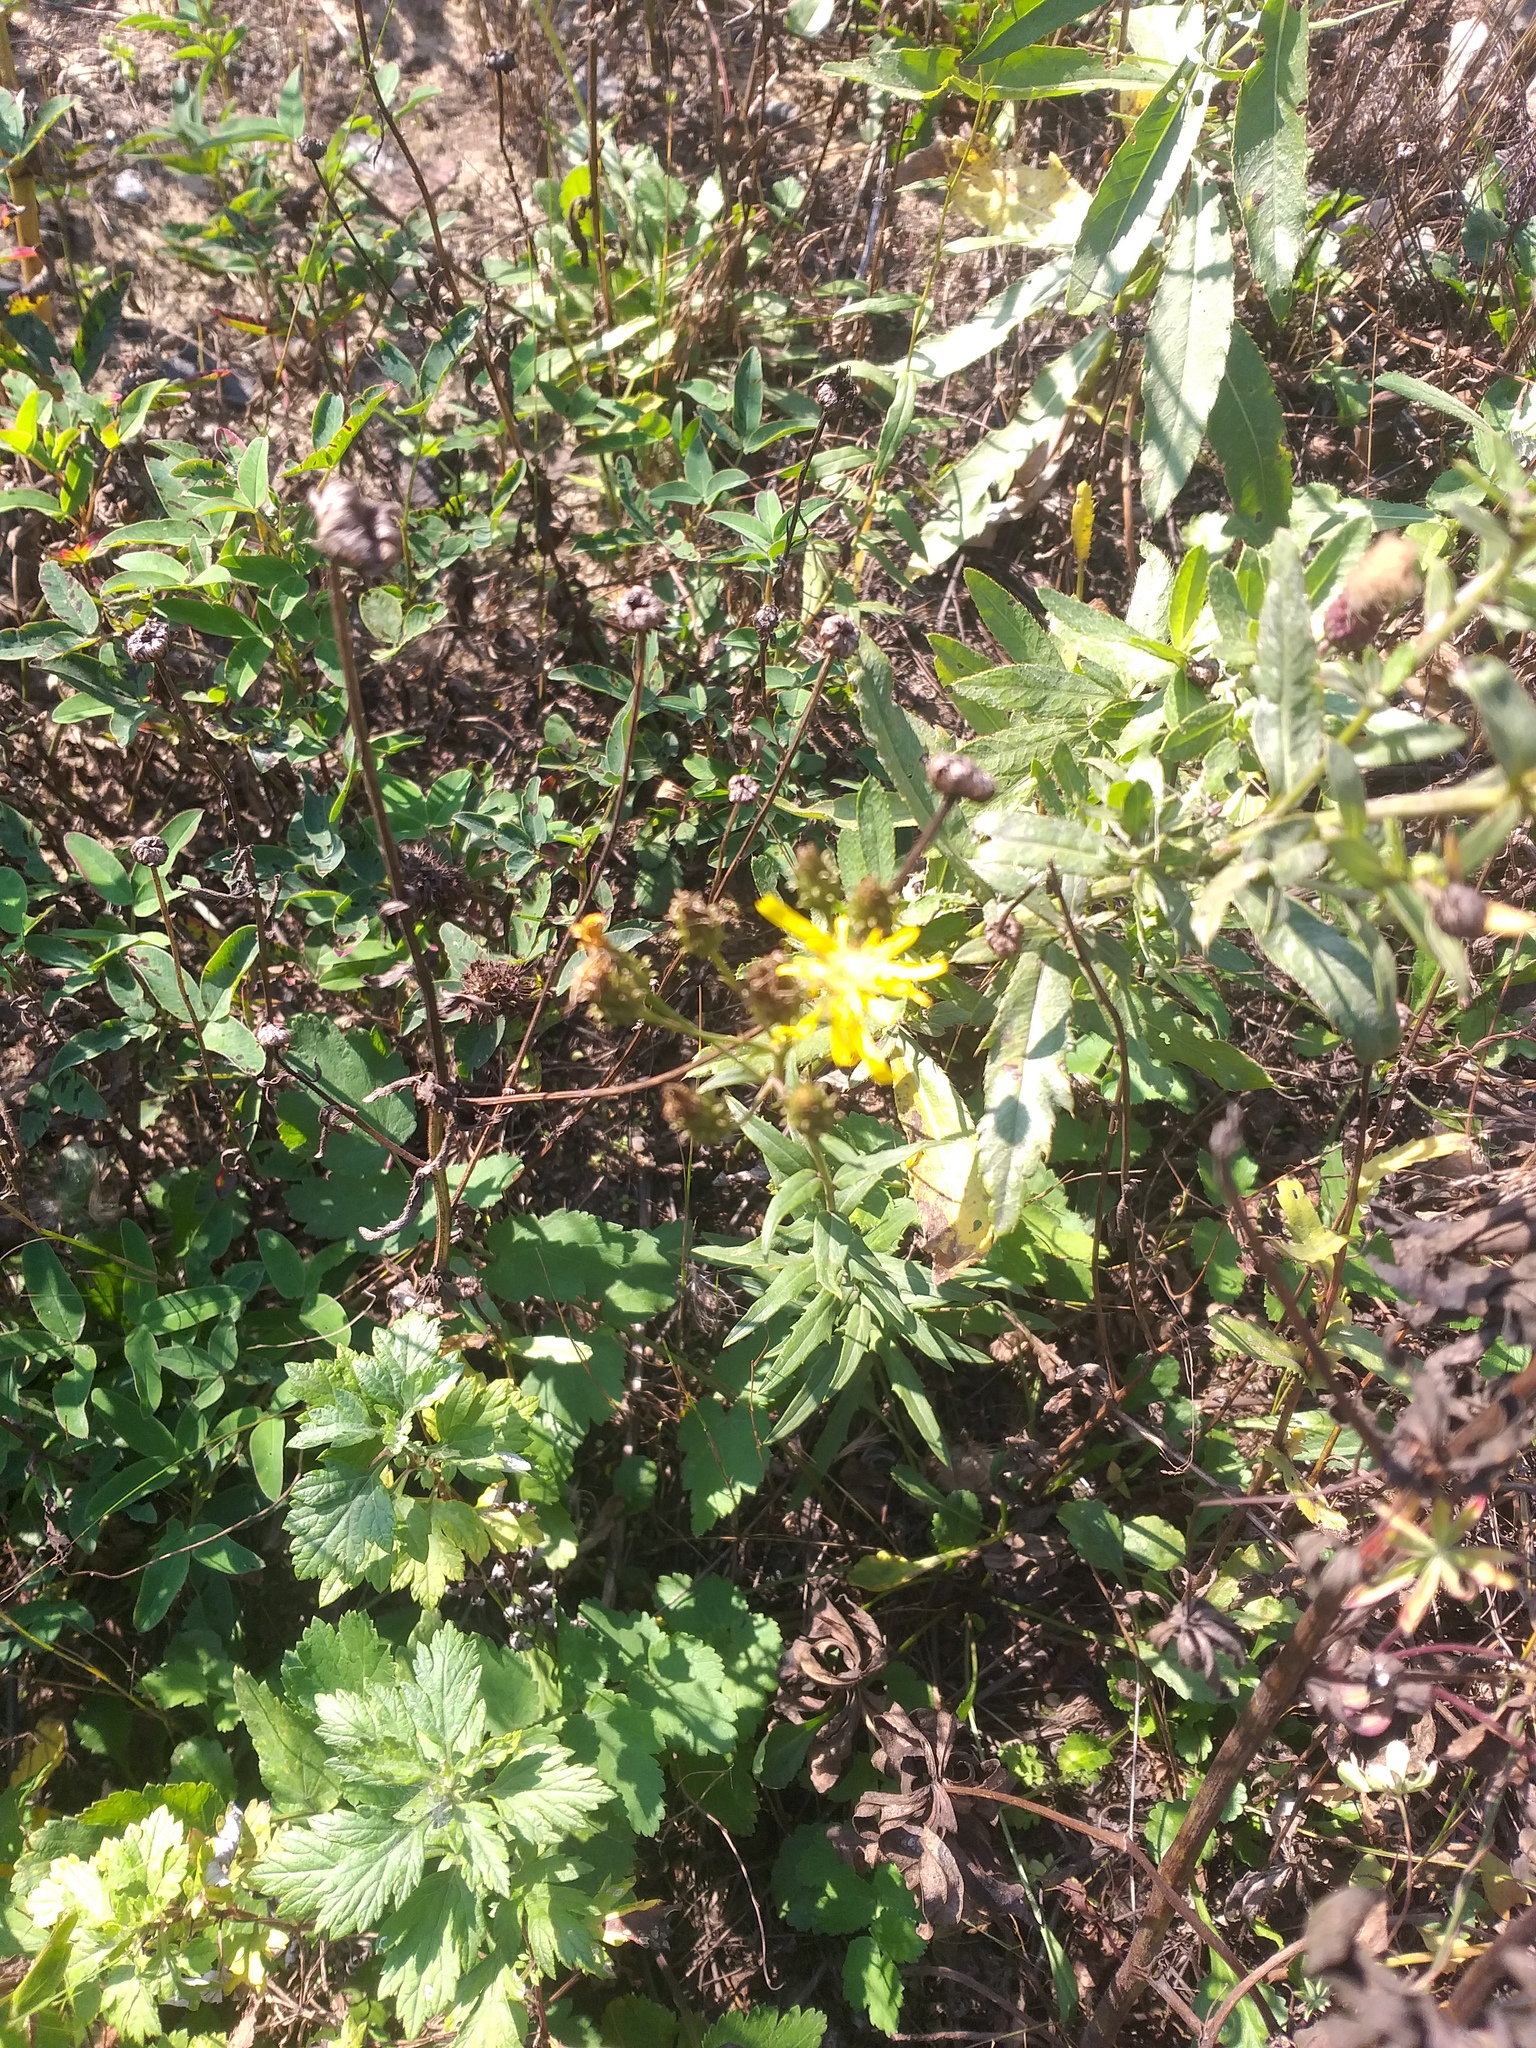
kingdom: Plantae
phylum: Tracheophyta
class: Magnoliopsida
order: Asterales
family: Asteraceae
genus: Hieracium
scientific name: Hieracium umbellatum
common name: Northern hawkweed
